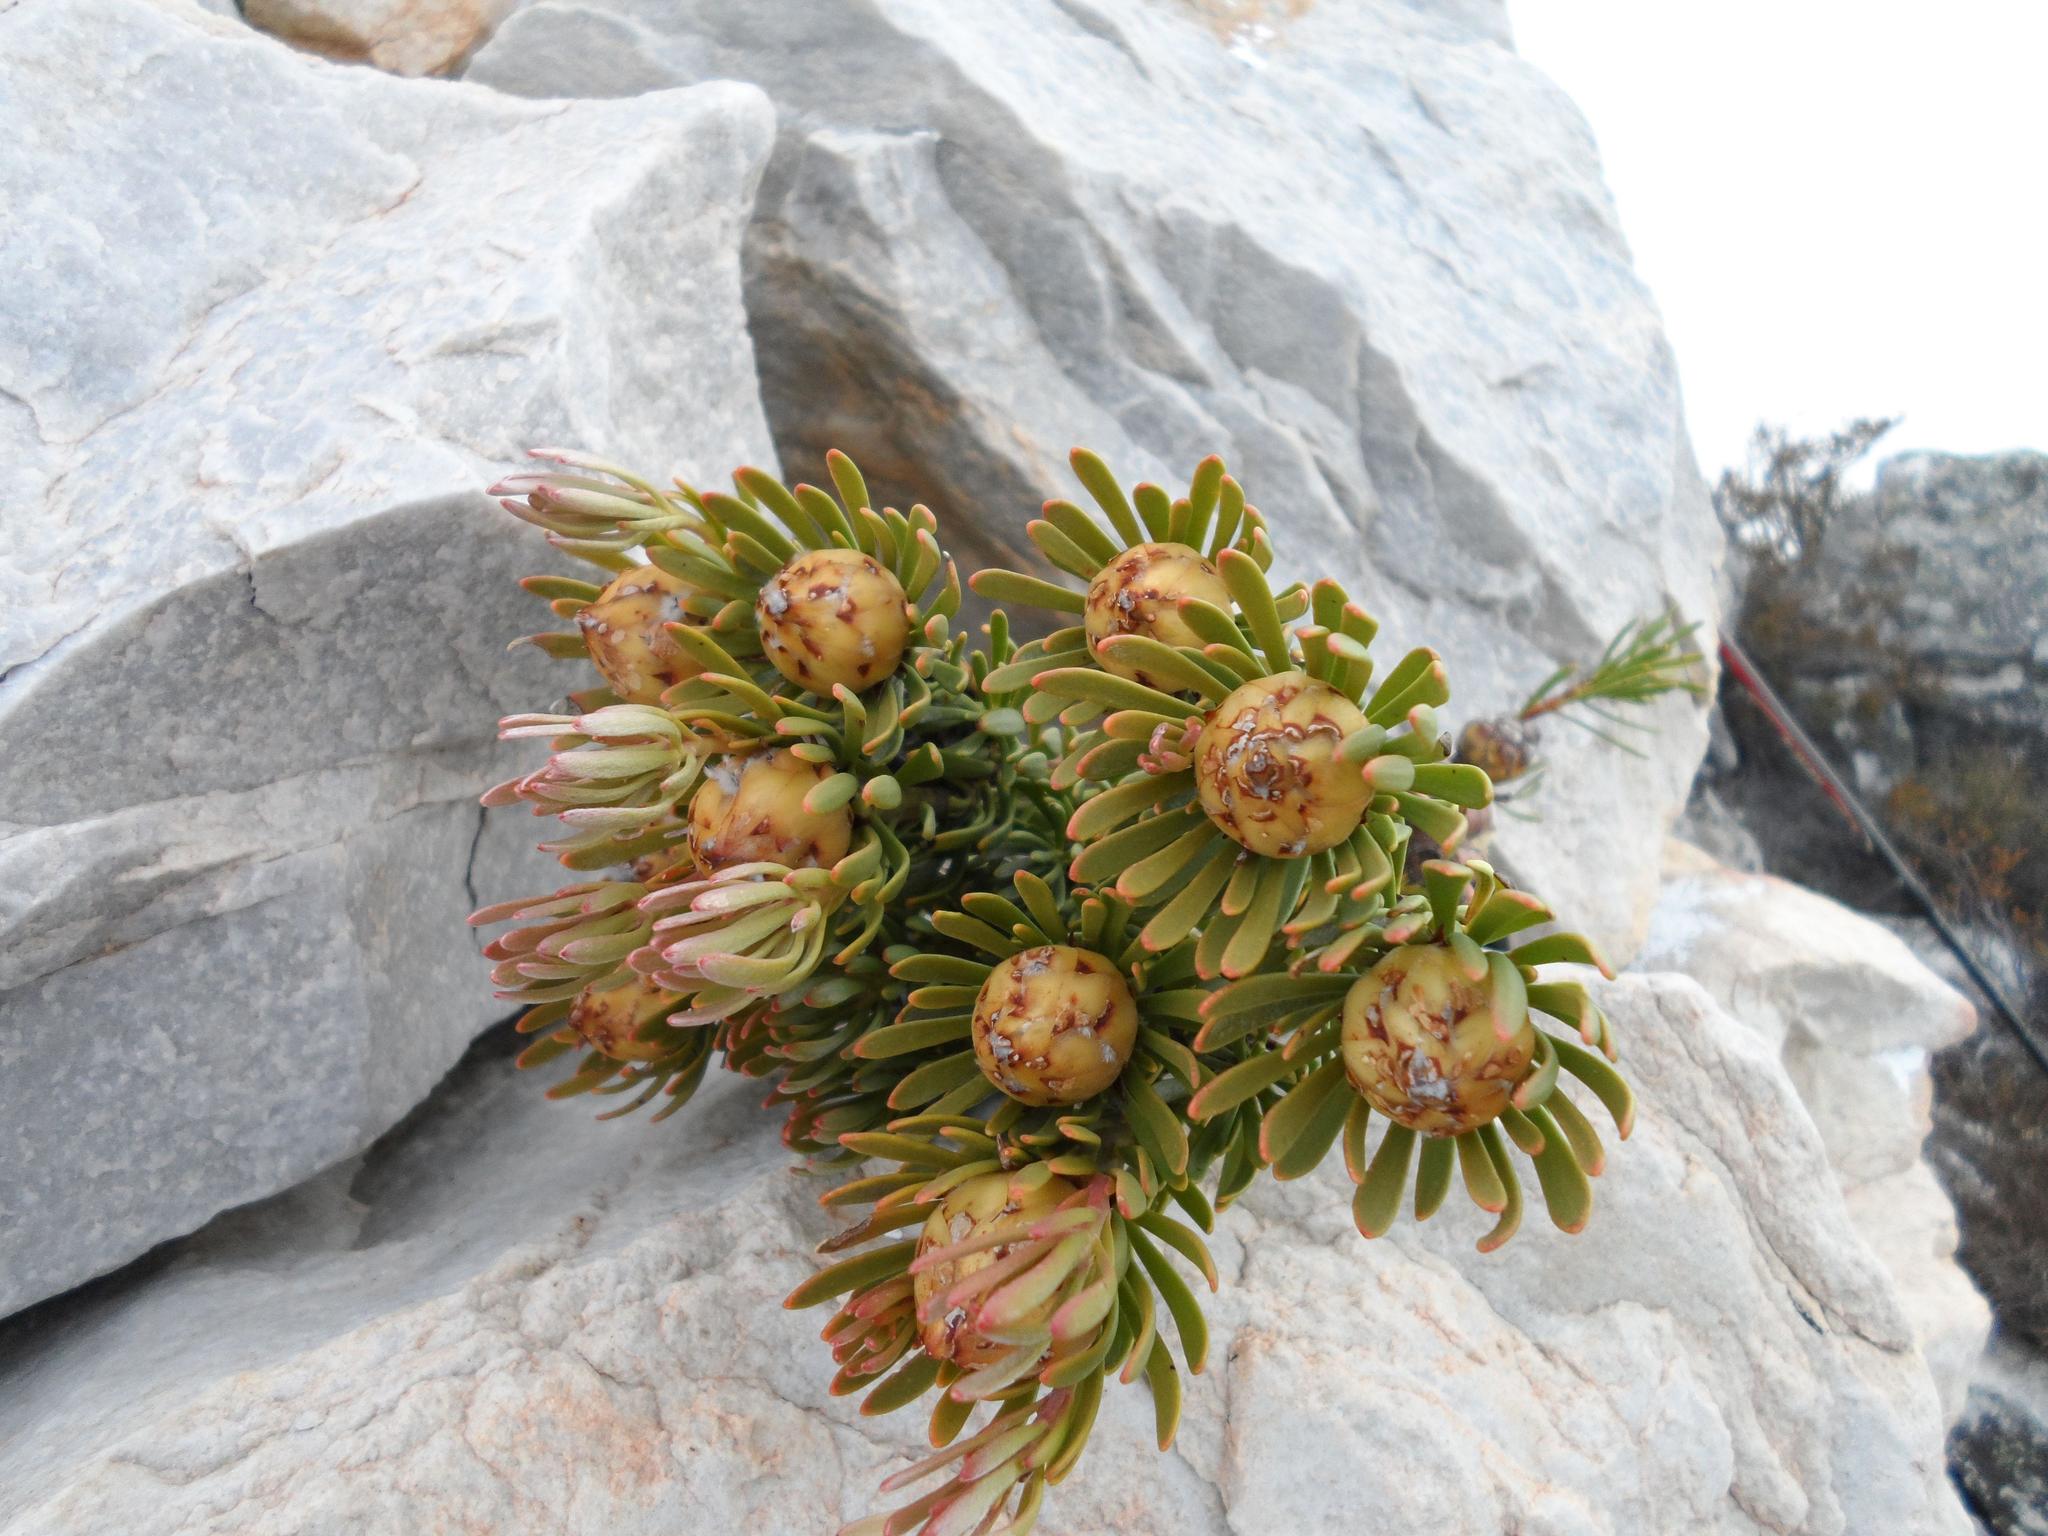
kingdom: Plantae
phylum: Tracheophyta
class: Magnoliopsida
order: Proteales
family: Proteaceae
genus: Leucadendron
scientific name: Leucadendron dregei
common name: Summit conebush
